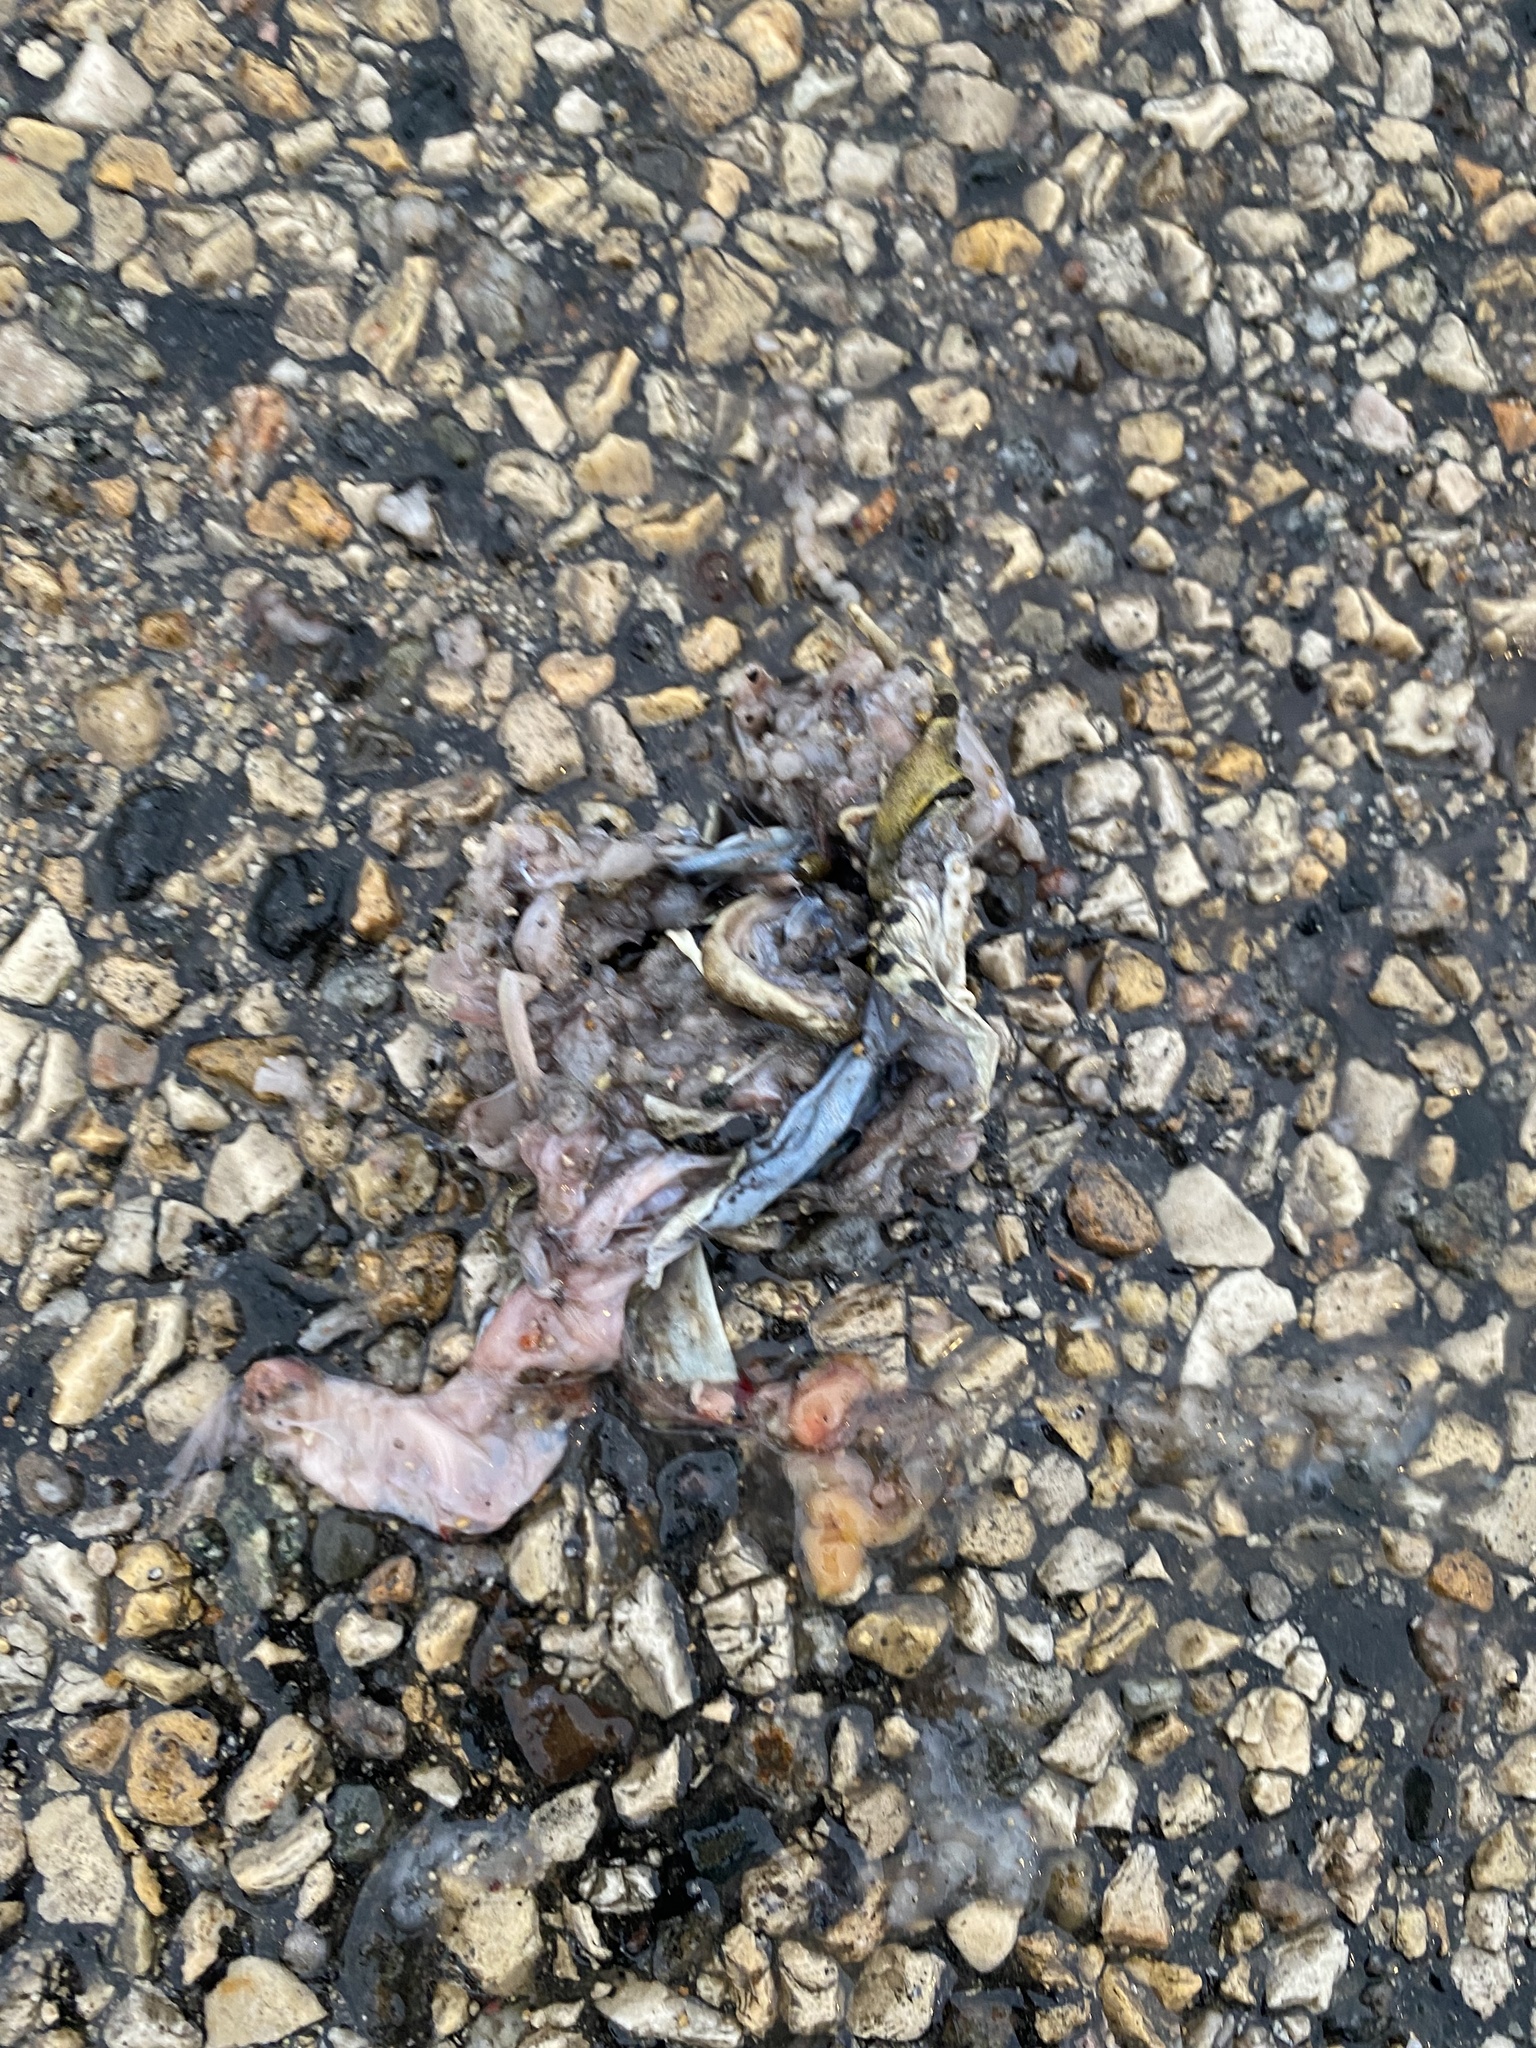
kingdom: Animalia
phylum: Chordata
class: Amphibia
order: Caudata
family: Ambystomatidae
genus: Ambystoma
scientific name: Ambystoma mavortium
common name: Western tiger salamander
